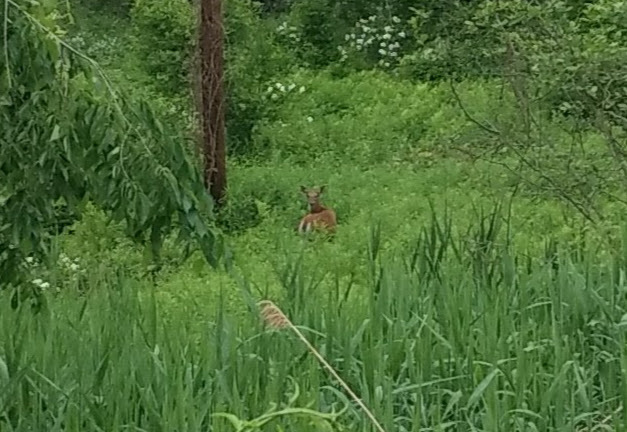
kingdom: Animalia
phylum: Chordata
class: Mammalia
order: Artiodactyla
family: Cervidae
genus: Odocoileus
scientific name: Odocoileus virginianus
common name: White-tailed deer
